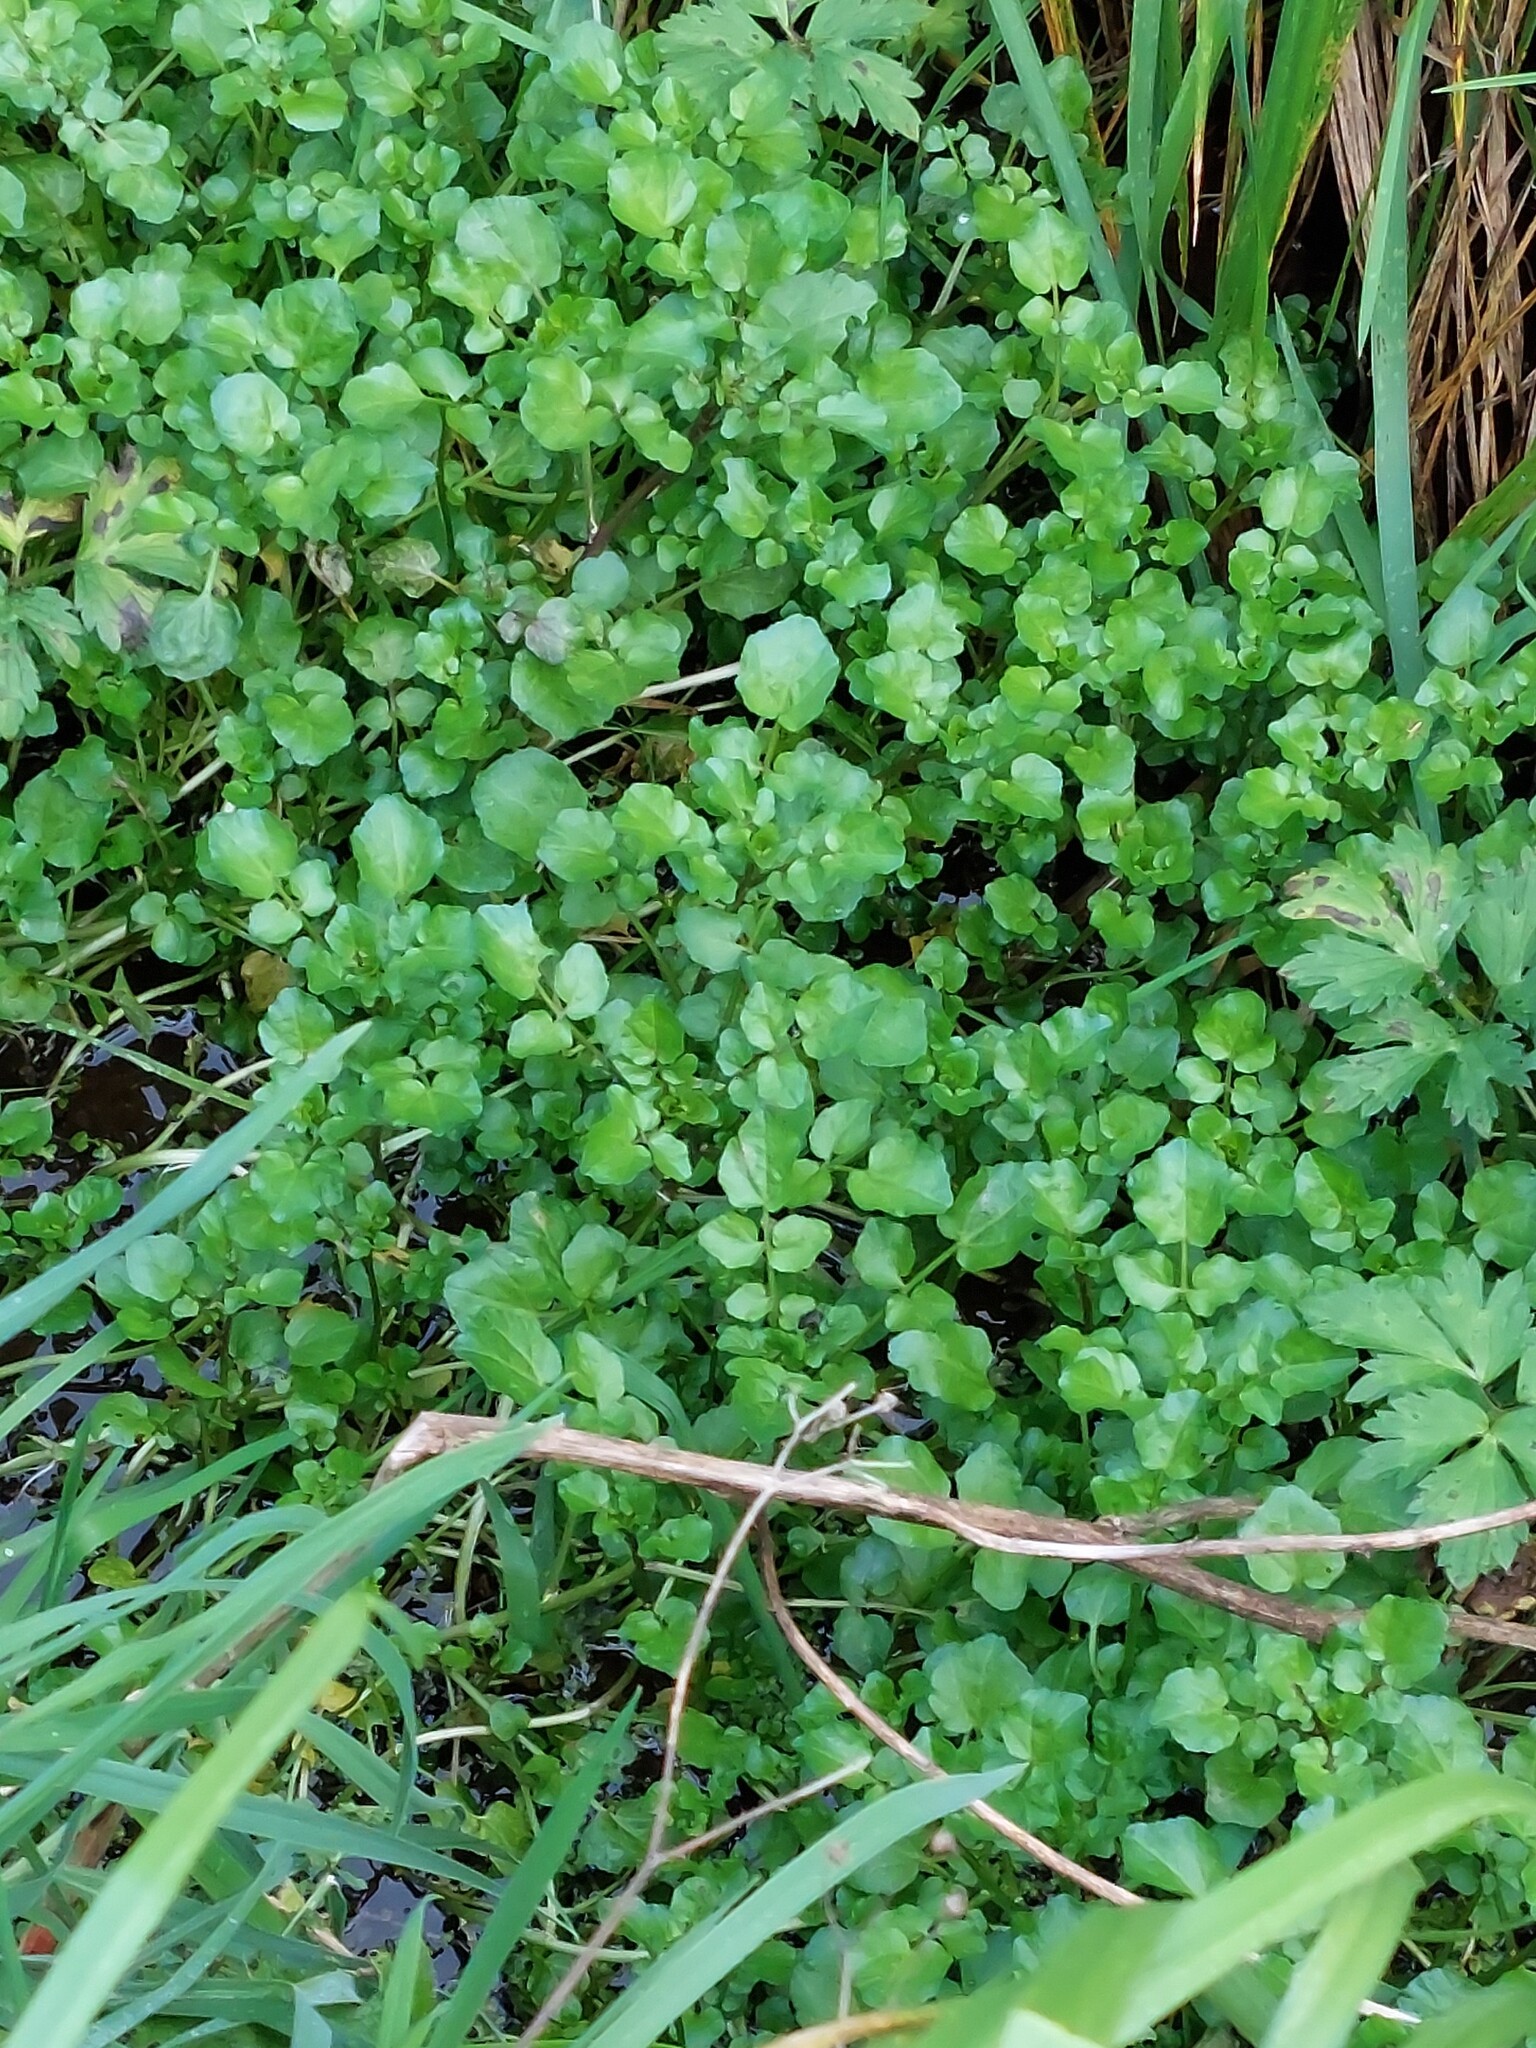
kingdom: Plantae
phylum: Tracheophyta
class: Magnoliopsida
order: Brassicales
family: Brassicaceae
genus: Nasturtium
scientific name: Nasturtium officinale
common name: Watercress
